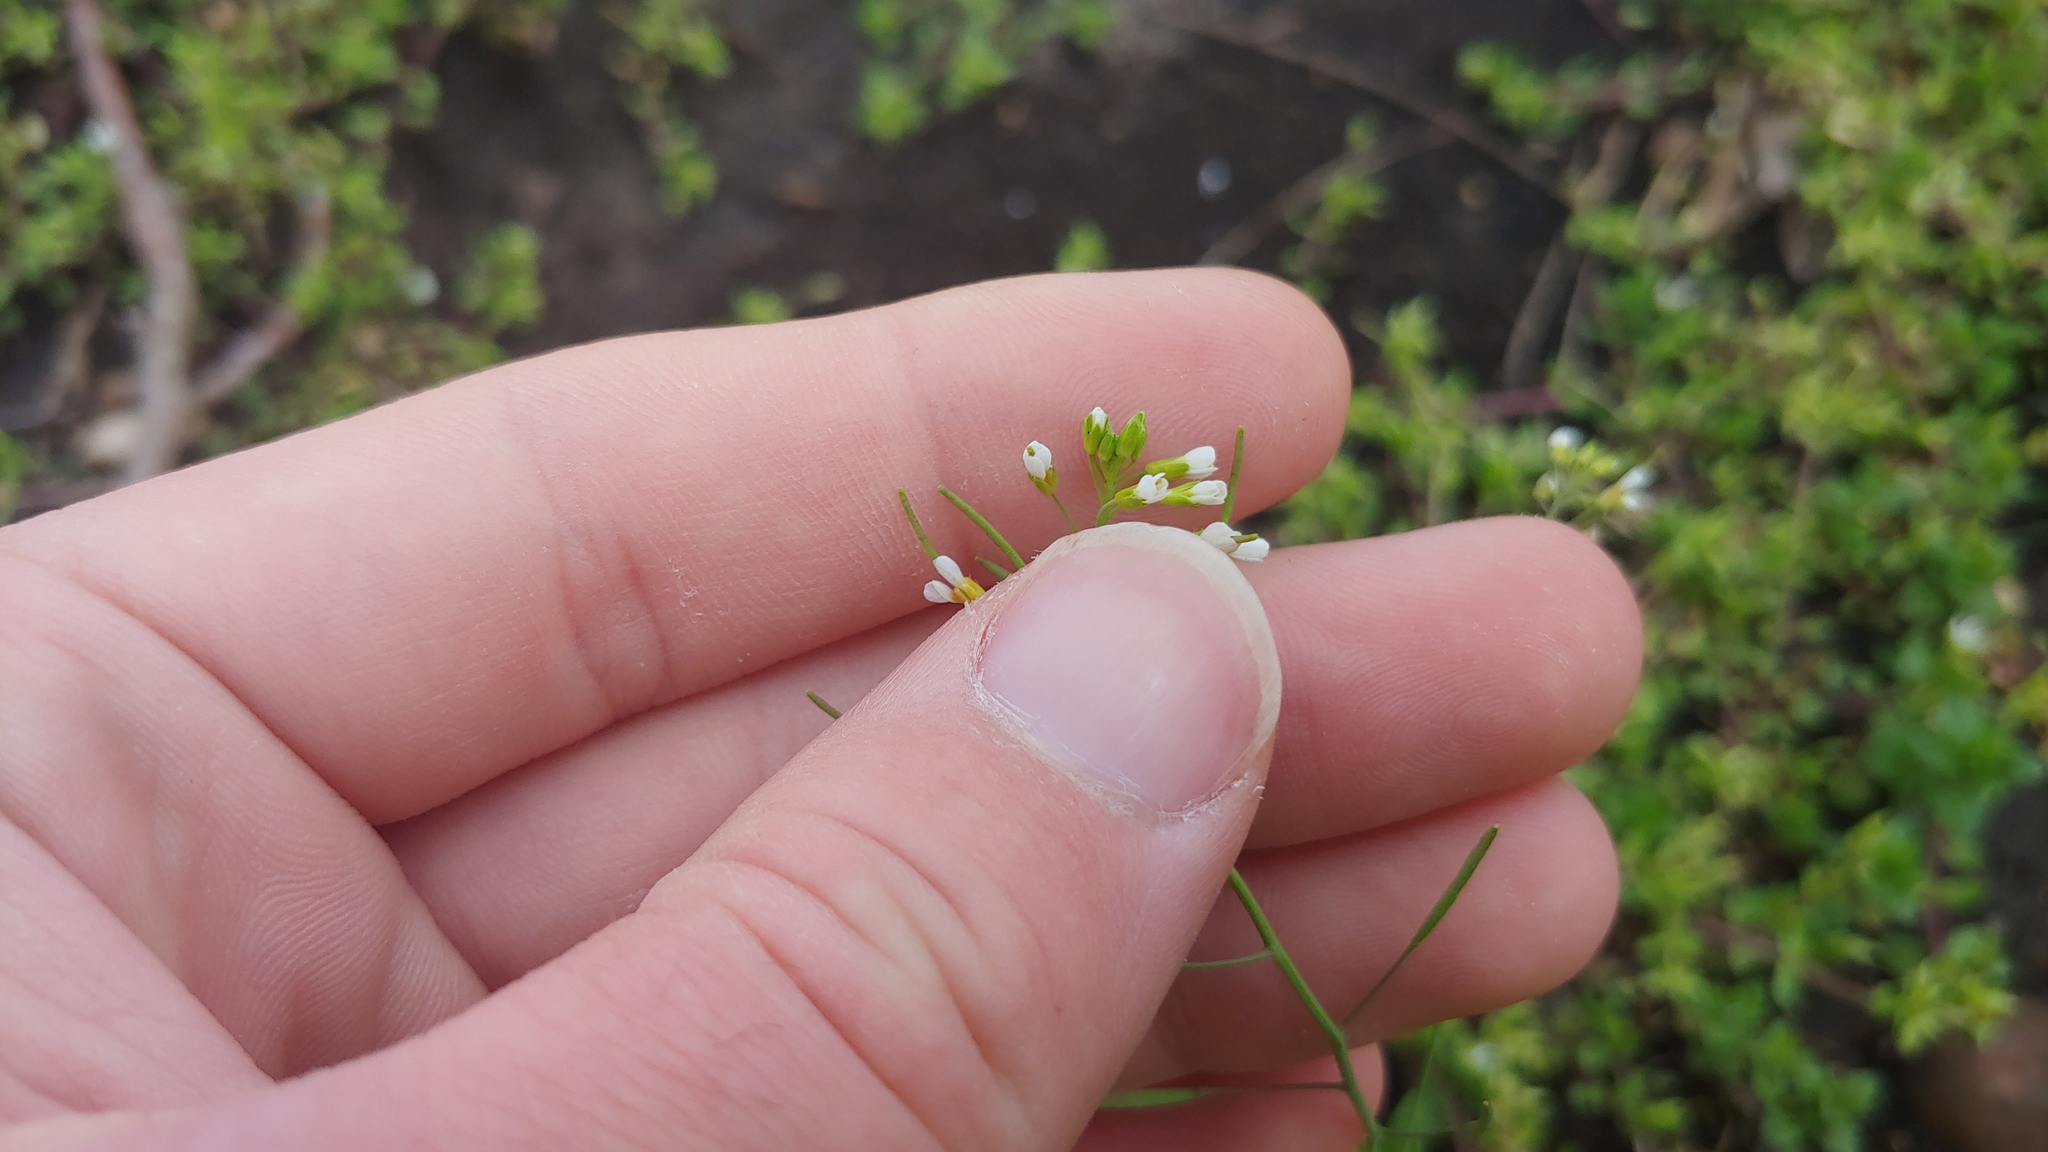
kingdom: Plantae
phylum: Tracheophyta
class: Magnoliopsida
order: Brassicales
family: Brassicaceae
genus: Arabidopsis
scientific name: Arabidopsis thaliana
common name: Thale cress
